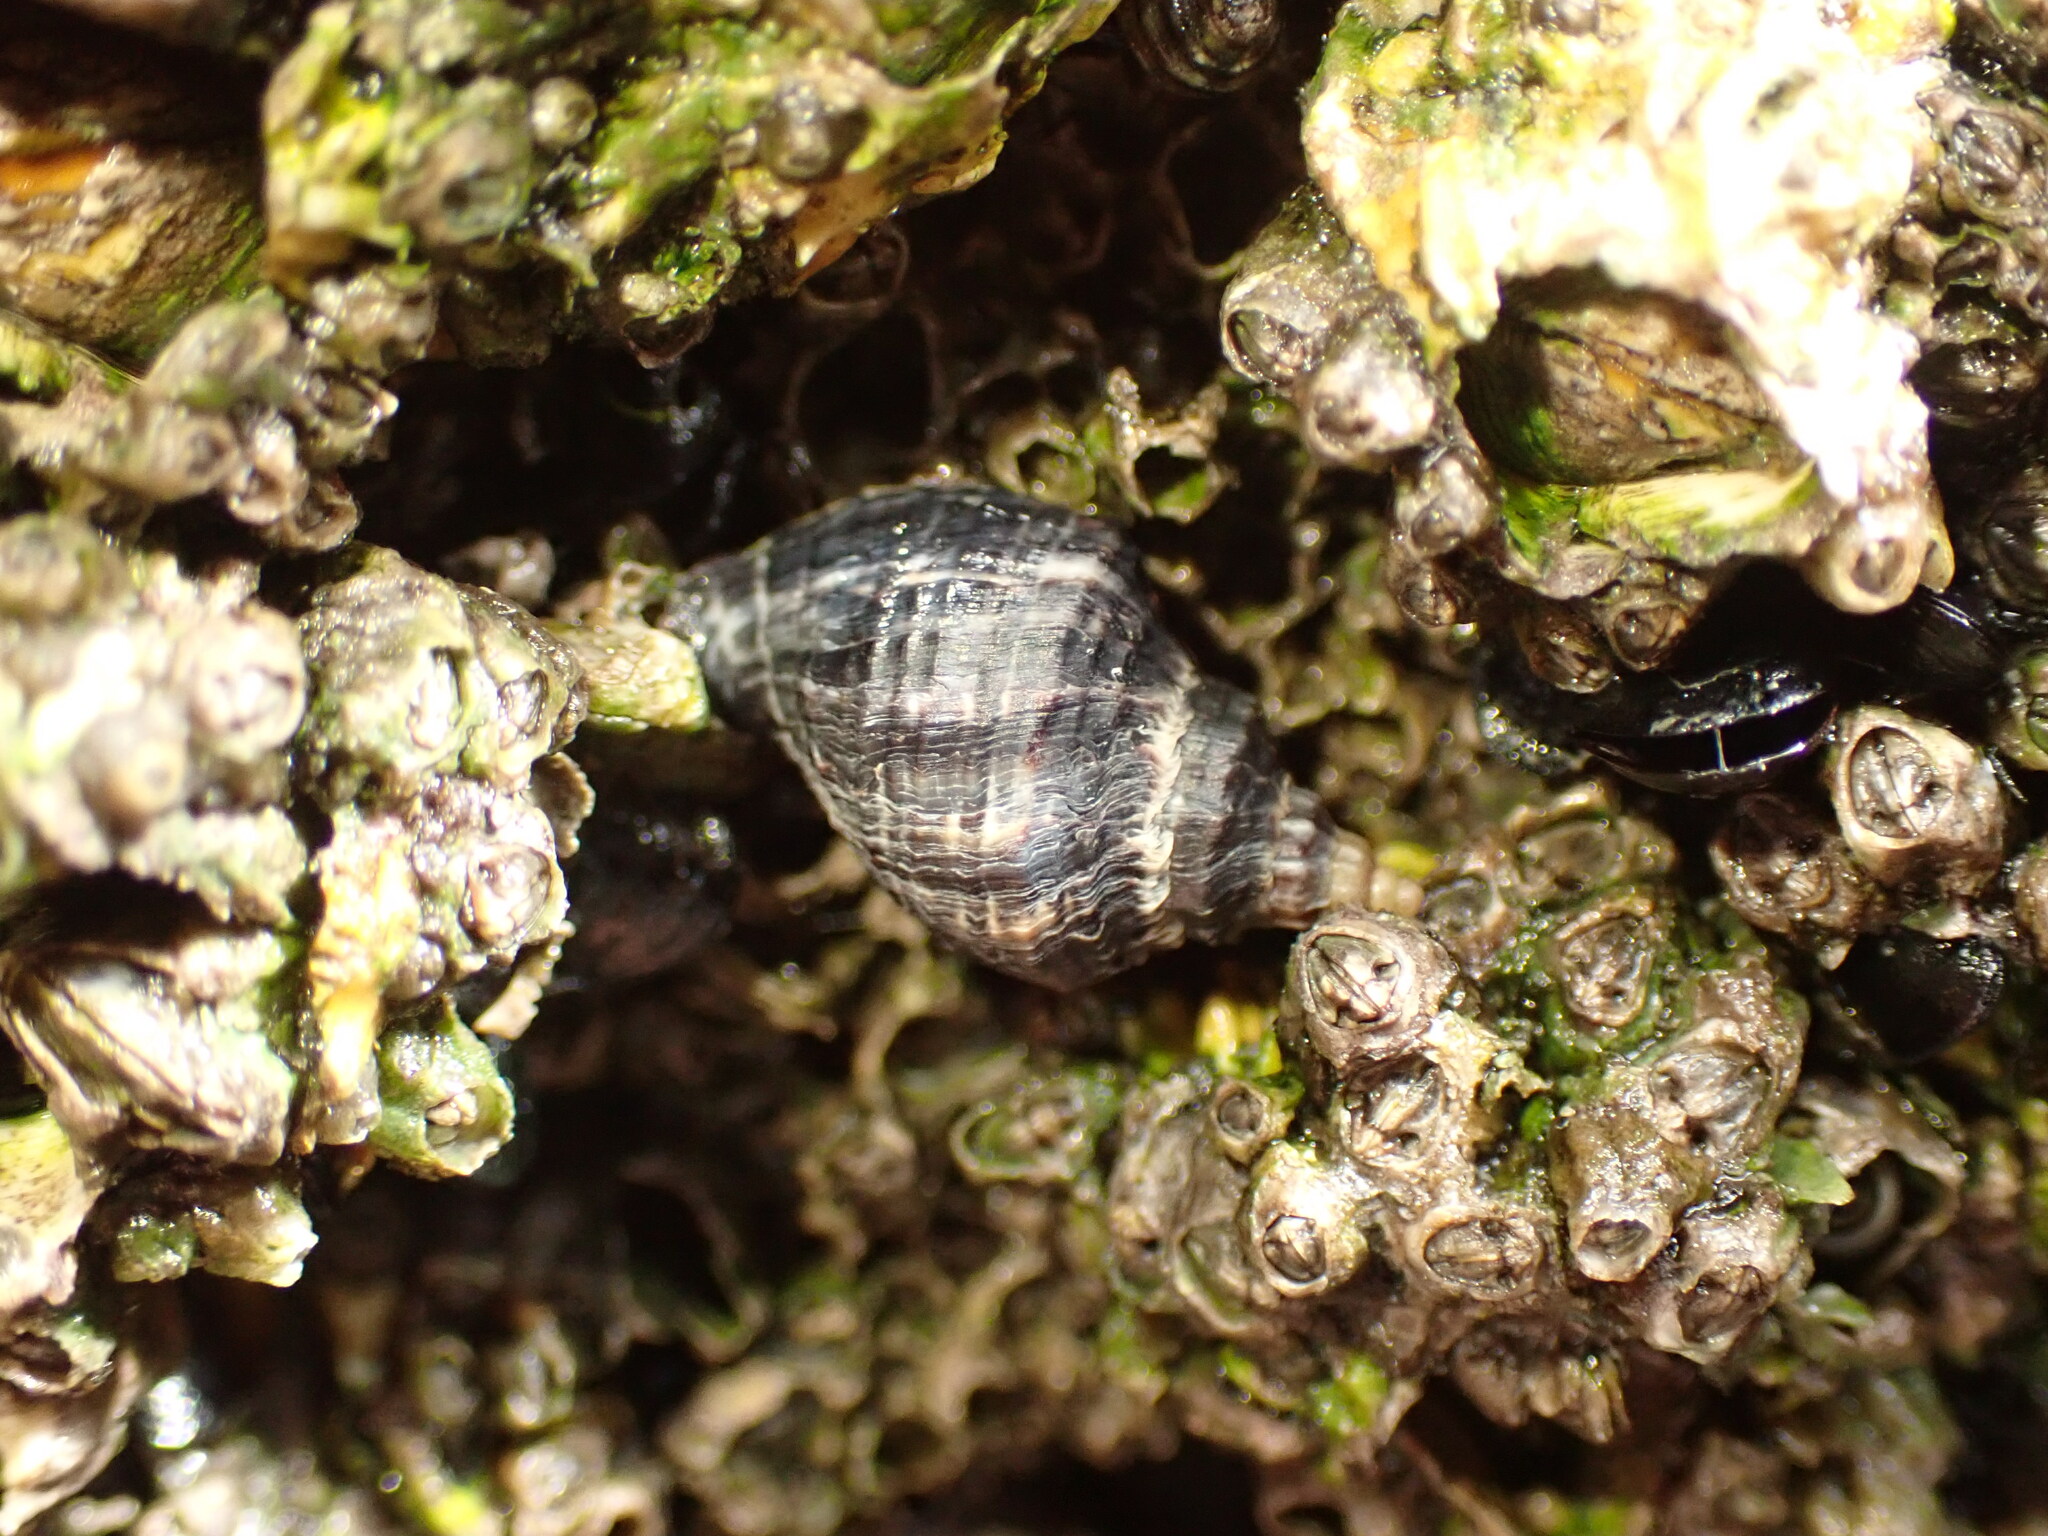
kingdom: Animalia
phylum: Mollusca
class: Gastropoda
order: Neogastropoda
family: Muricidae
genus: Haustrum
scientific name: Haustrum albomarginatum
